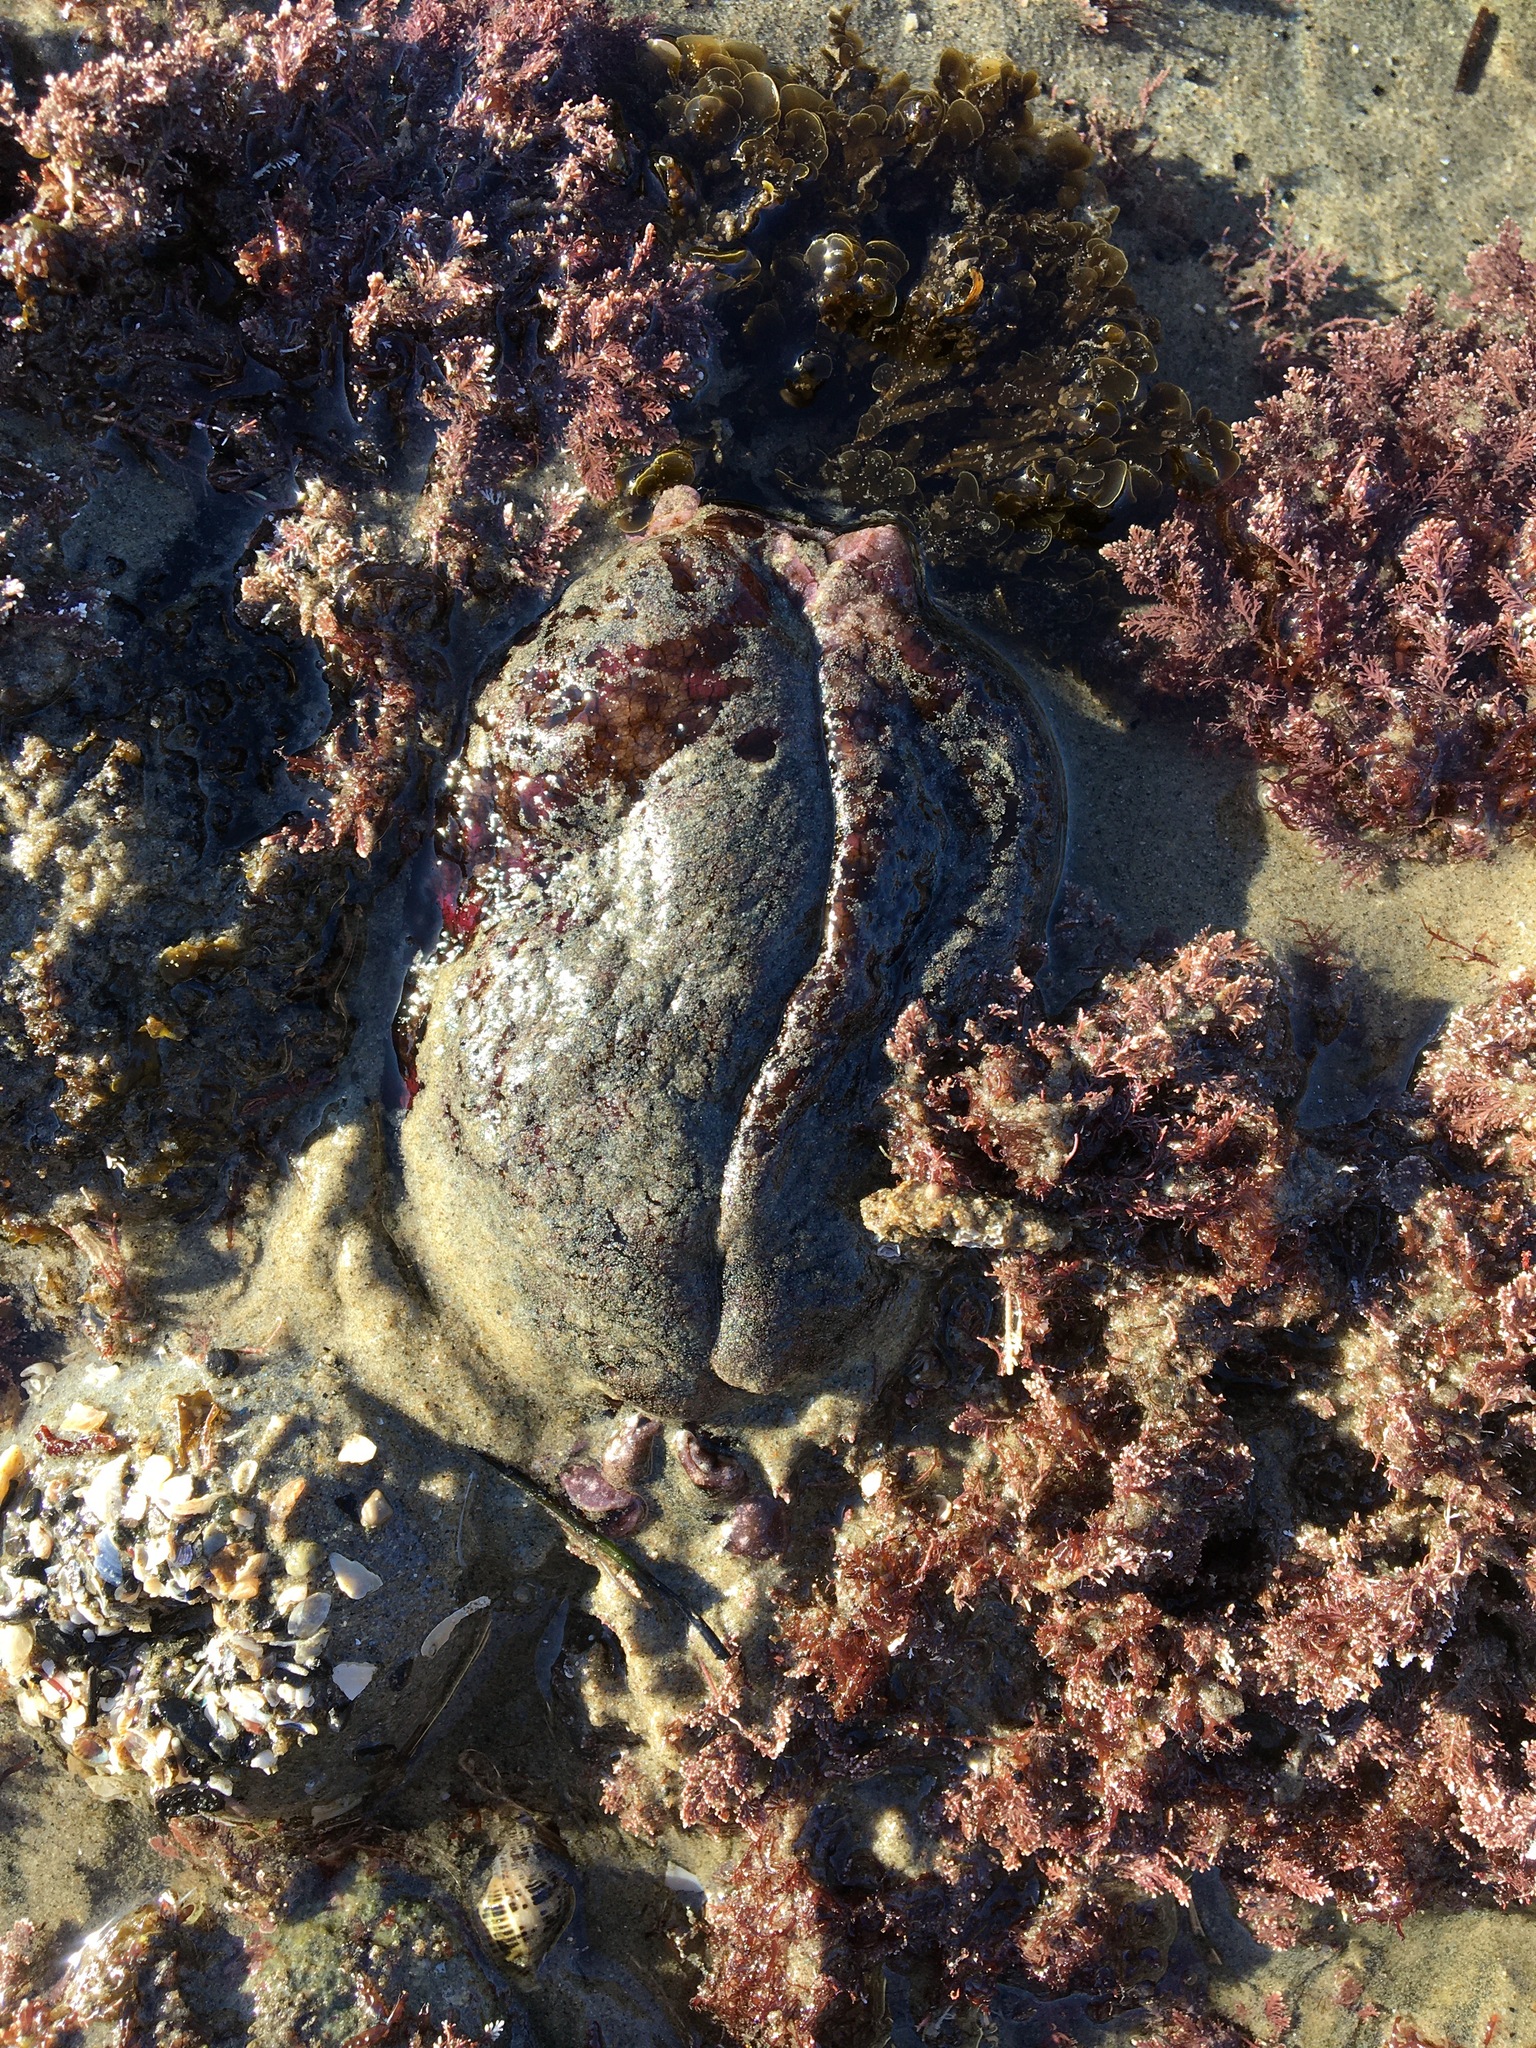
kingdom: Animalia
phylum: Mollusca
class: Gastropoda
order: Aplysiida
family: Aplysiidae
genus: Aplysia
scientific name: Aplysia californica
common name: California seahare
